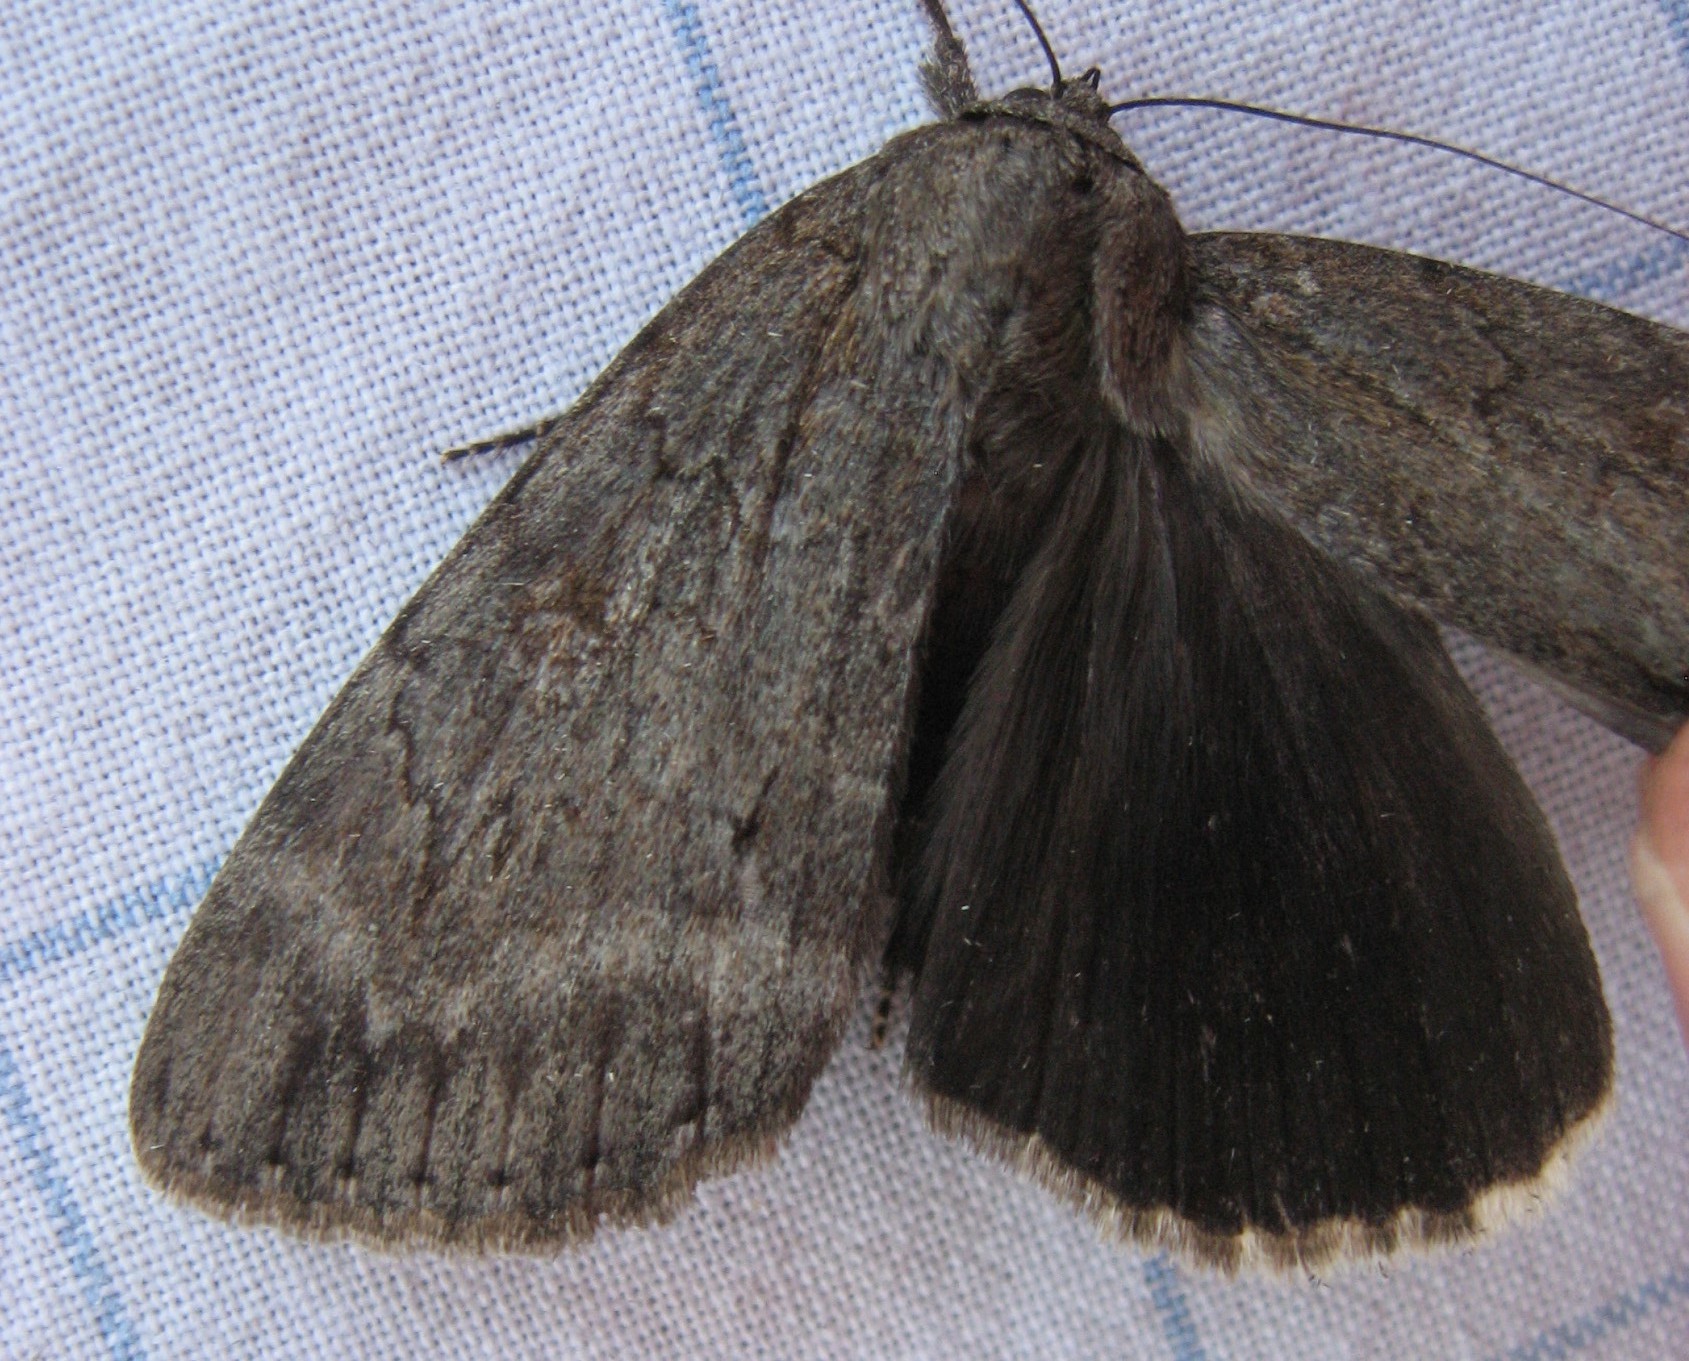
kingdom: Animalia
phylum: Arthropoda
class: Insecta
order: Lepidoptera
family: Erebidae
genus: Catocala
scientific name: Catocala residua
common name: Residua underwing
